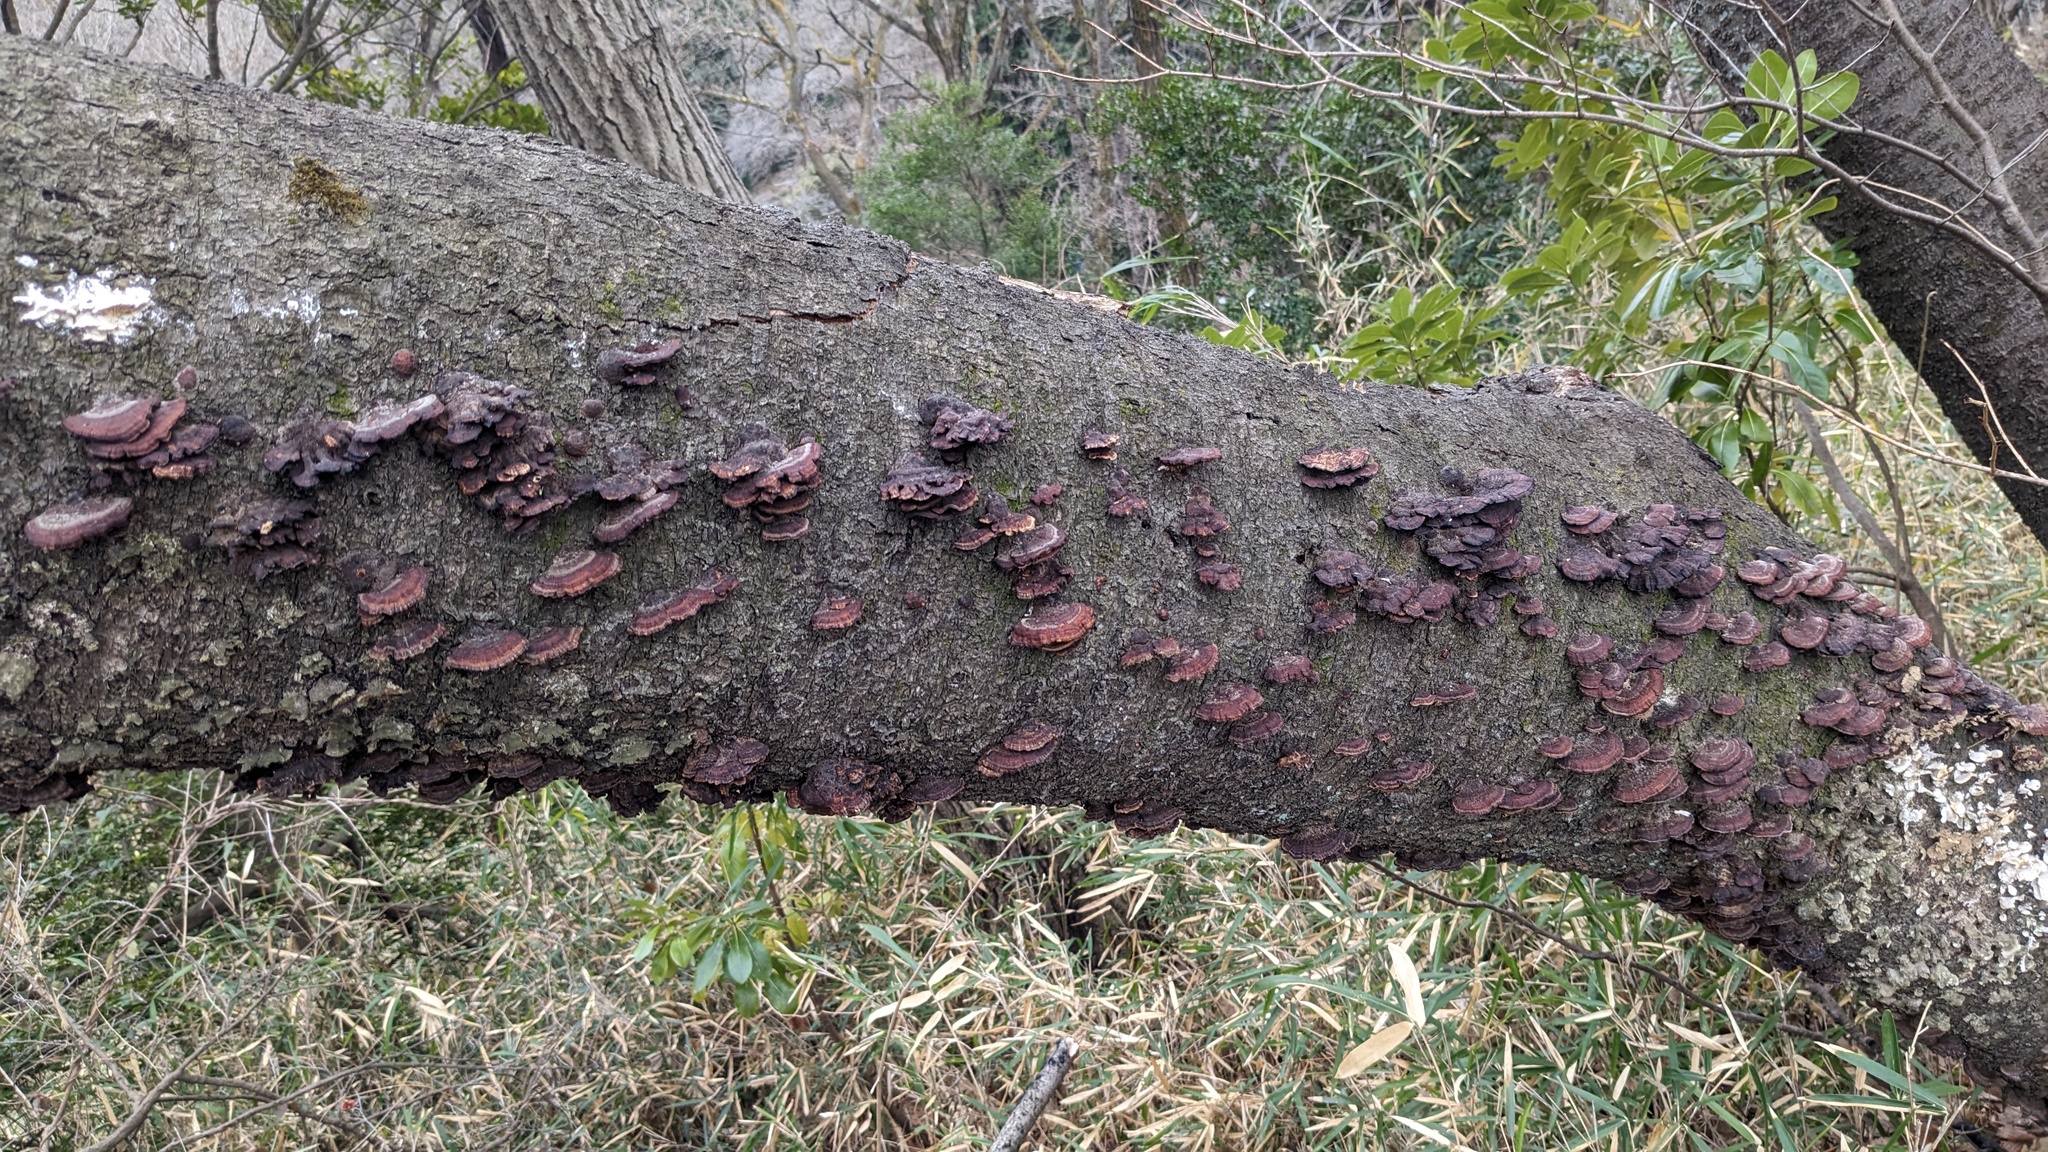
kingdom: Fungi
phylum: Basidiomycota
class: Agaricomycetes
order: Polyporales
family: Polyporaceae
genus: Daedaleopsis
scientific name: Daedaleopsis tricolor
